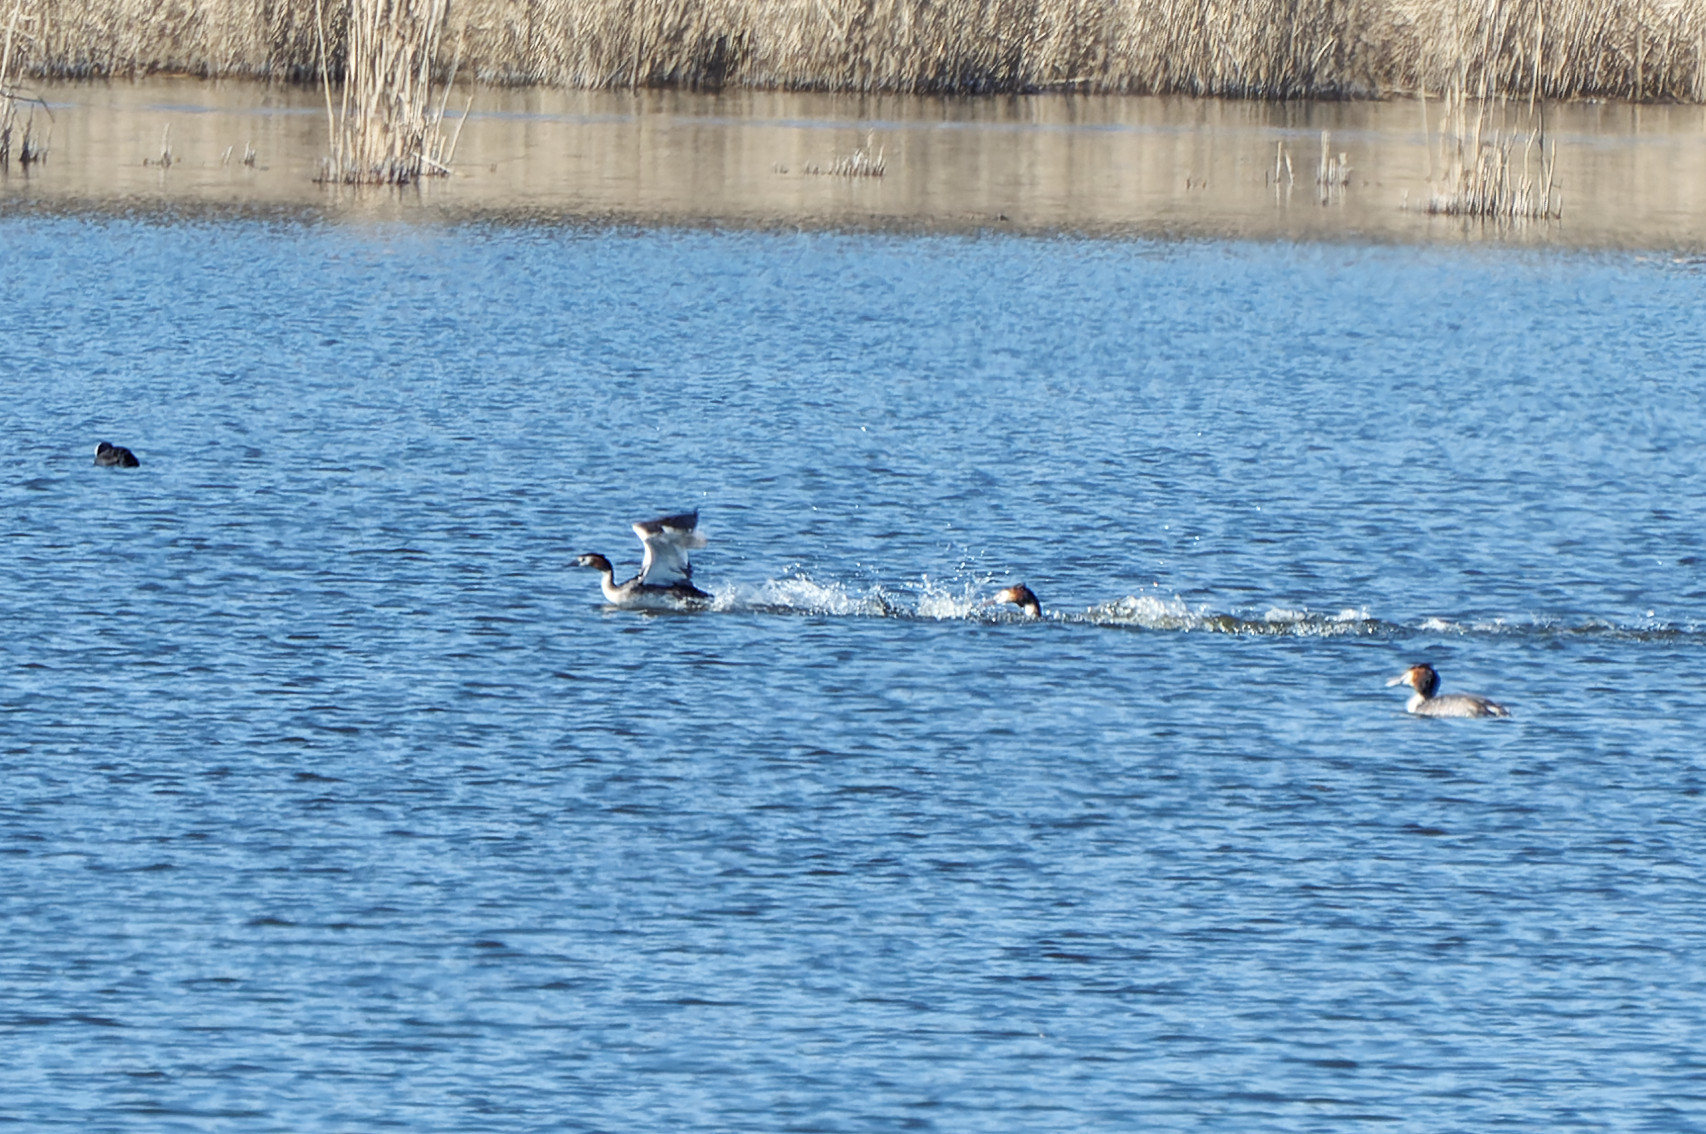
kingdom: Animalia
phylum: Chordata
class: Aves
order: Podicipediformes
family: Podicipedidae
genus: Podiceps
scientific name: Podiceps cristatus
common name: Great crested grebe
